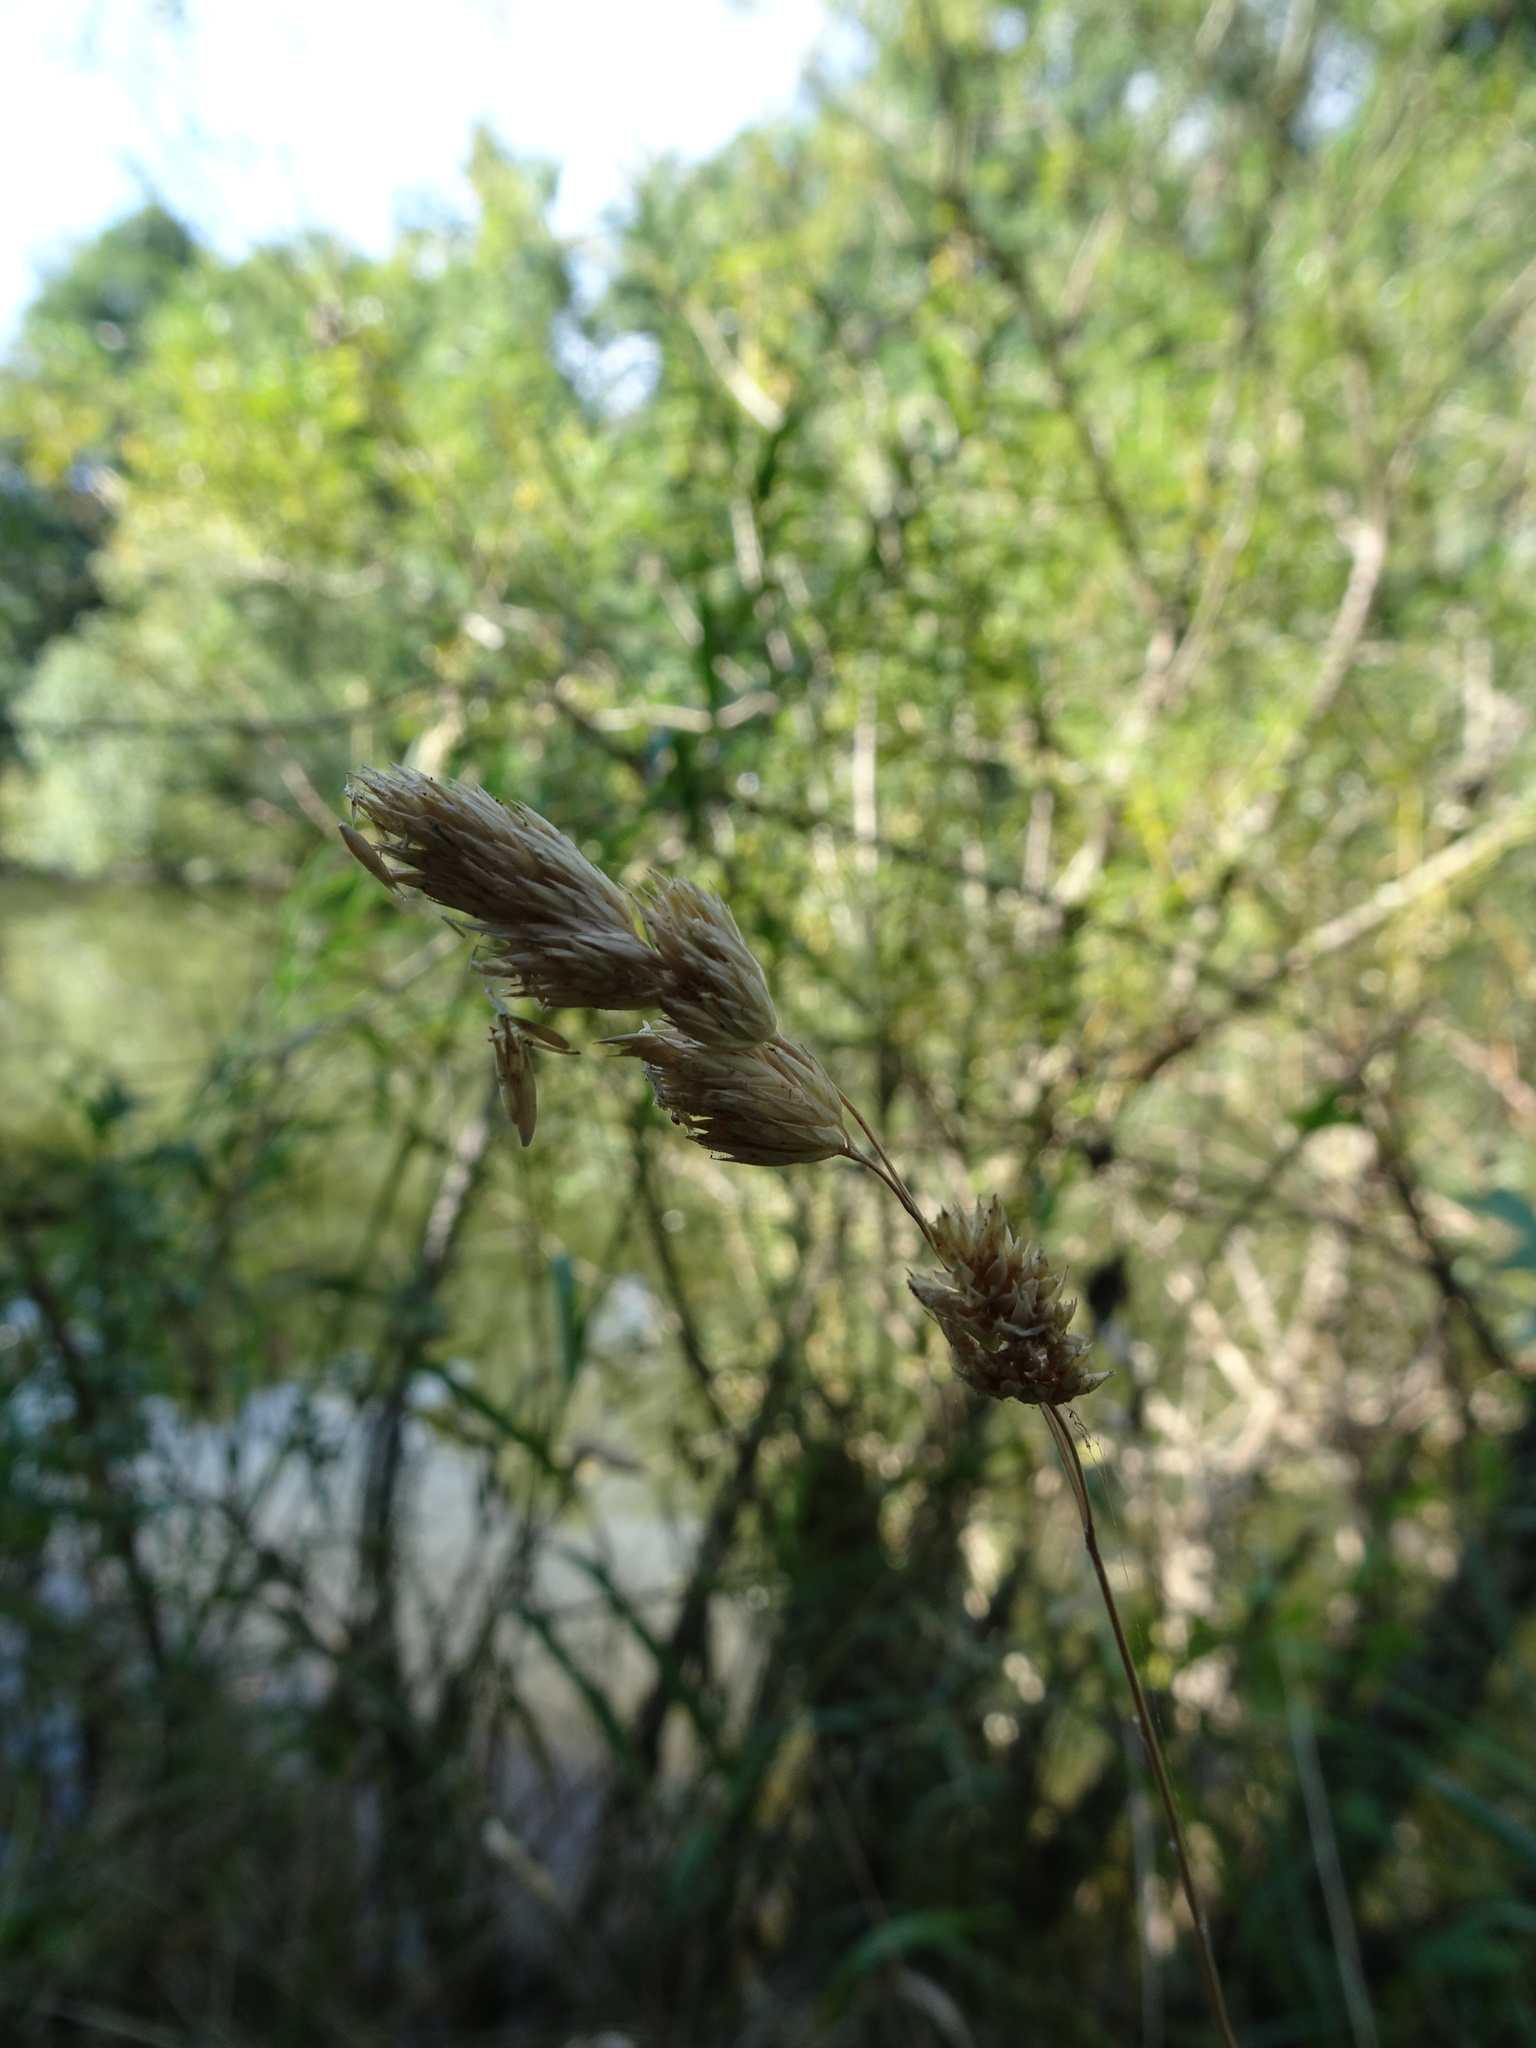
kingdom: Plantae
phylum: Tracheophyta
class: Liliopsida
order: Poales
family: Poaceae
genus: Dactylis
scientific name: Dactylis glomerata
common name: Orchardgrass
